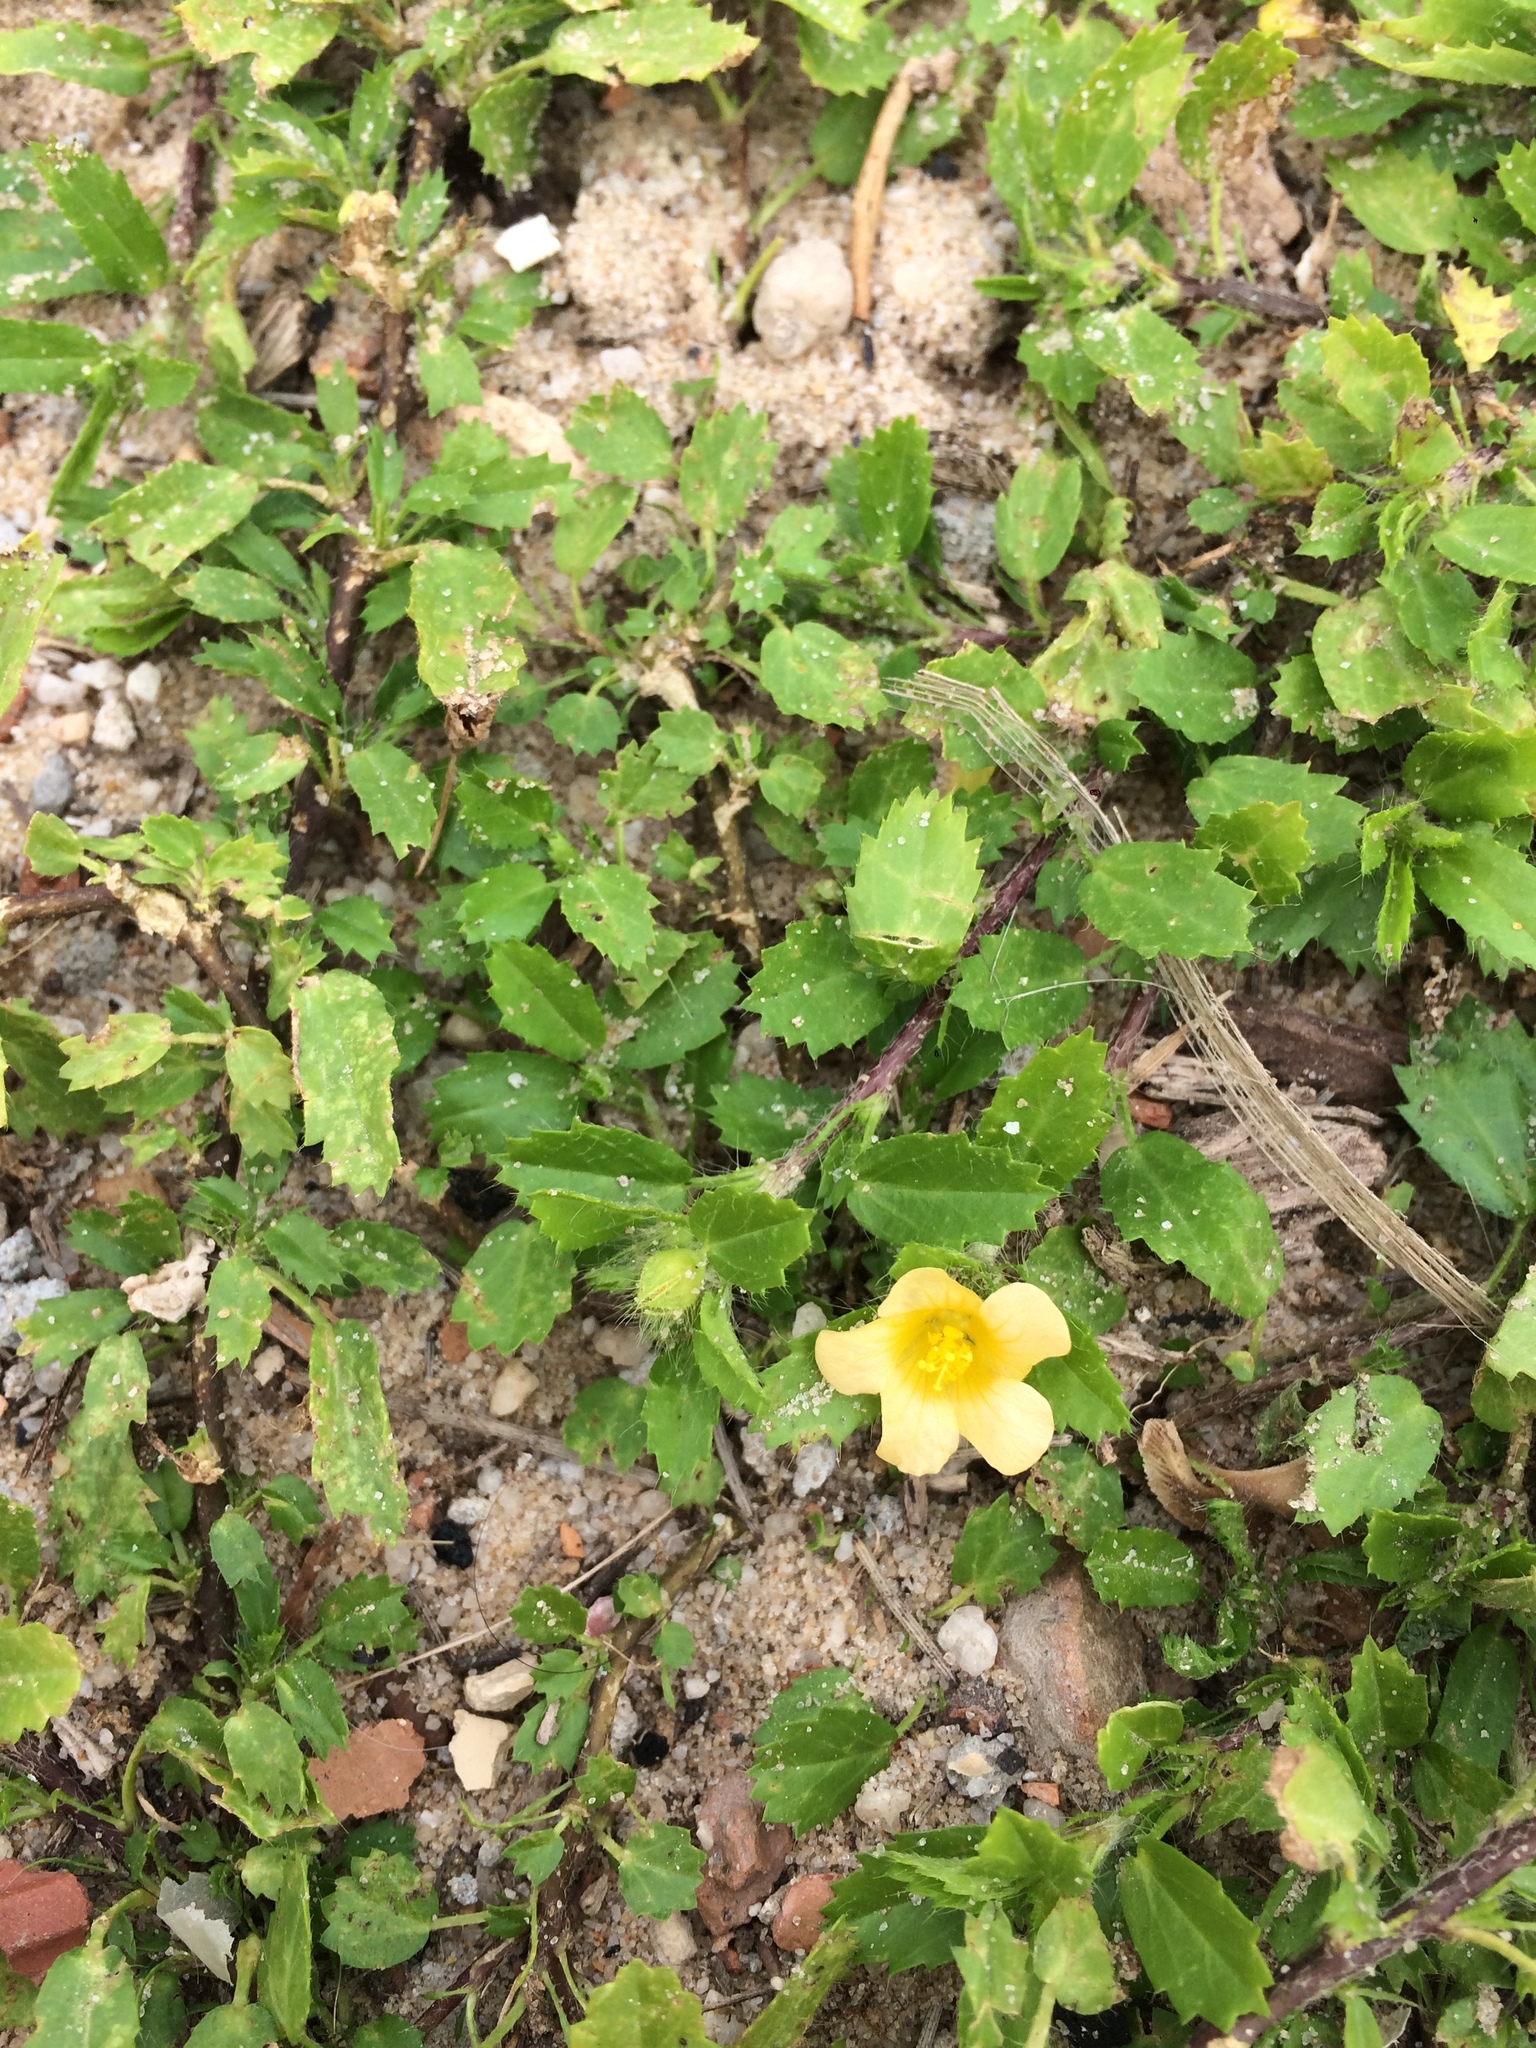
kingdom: Plantae
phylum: Tracheophyta
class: Magnoliopsida
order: Malvales
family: Malvaceae
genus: Sida
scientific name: Sida brittonii
